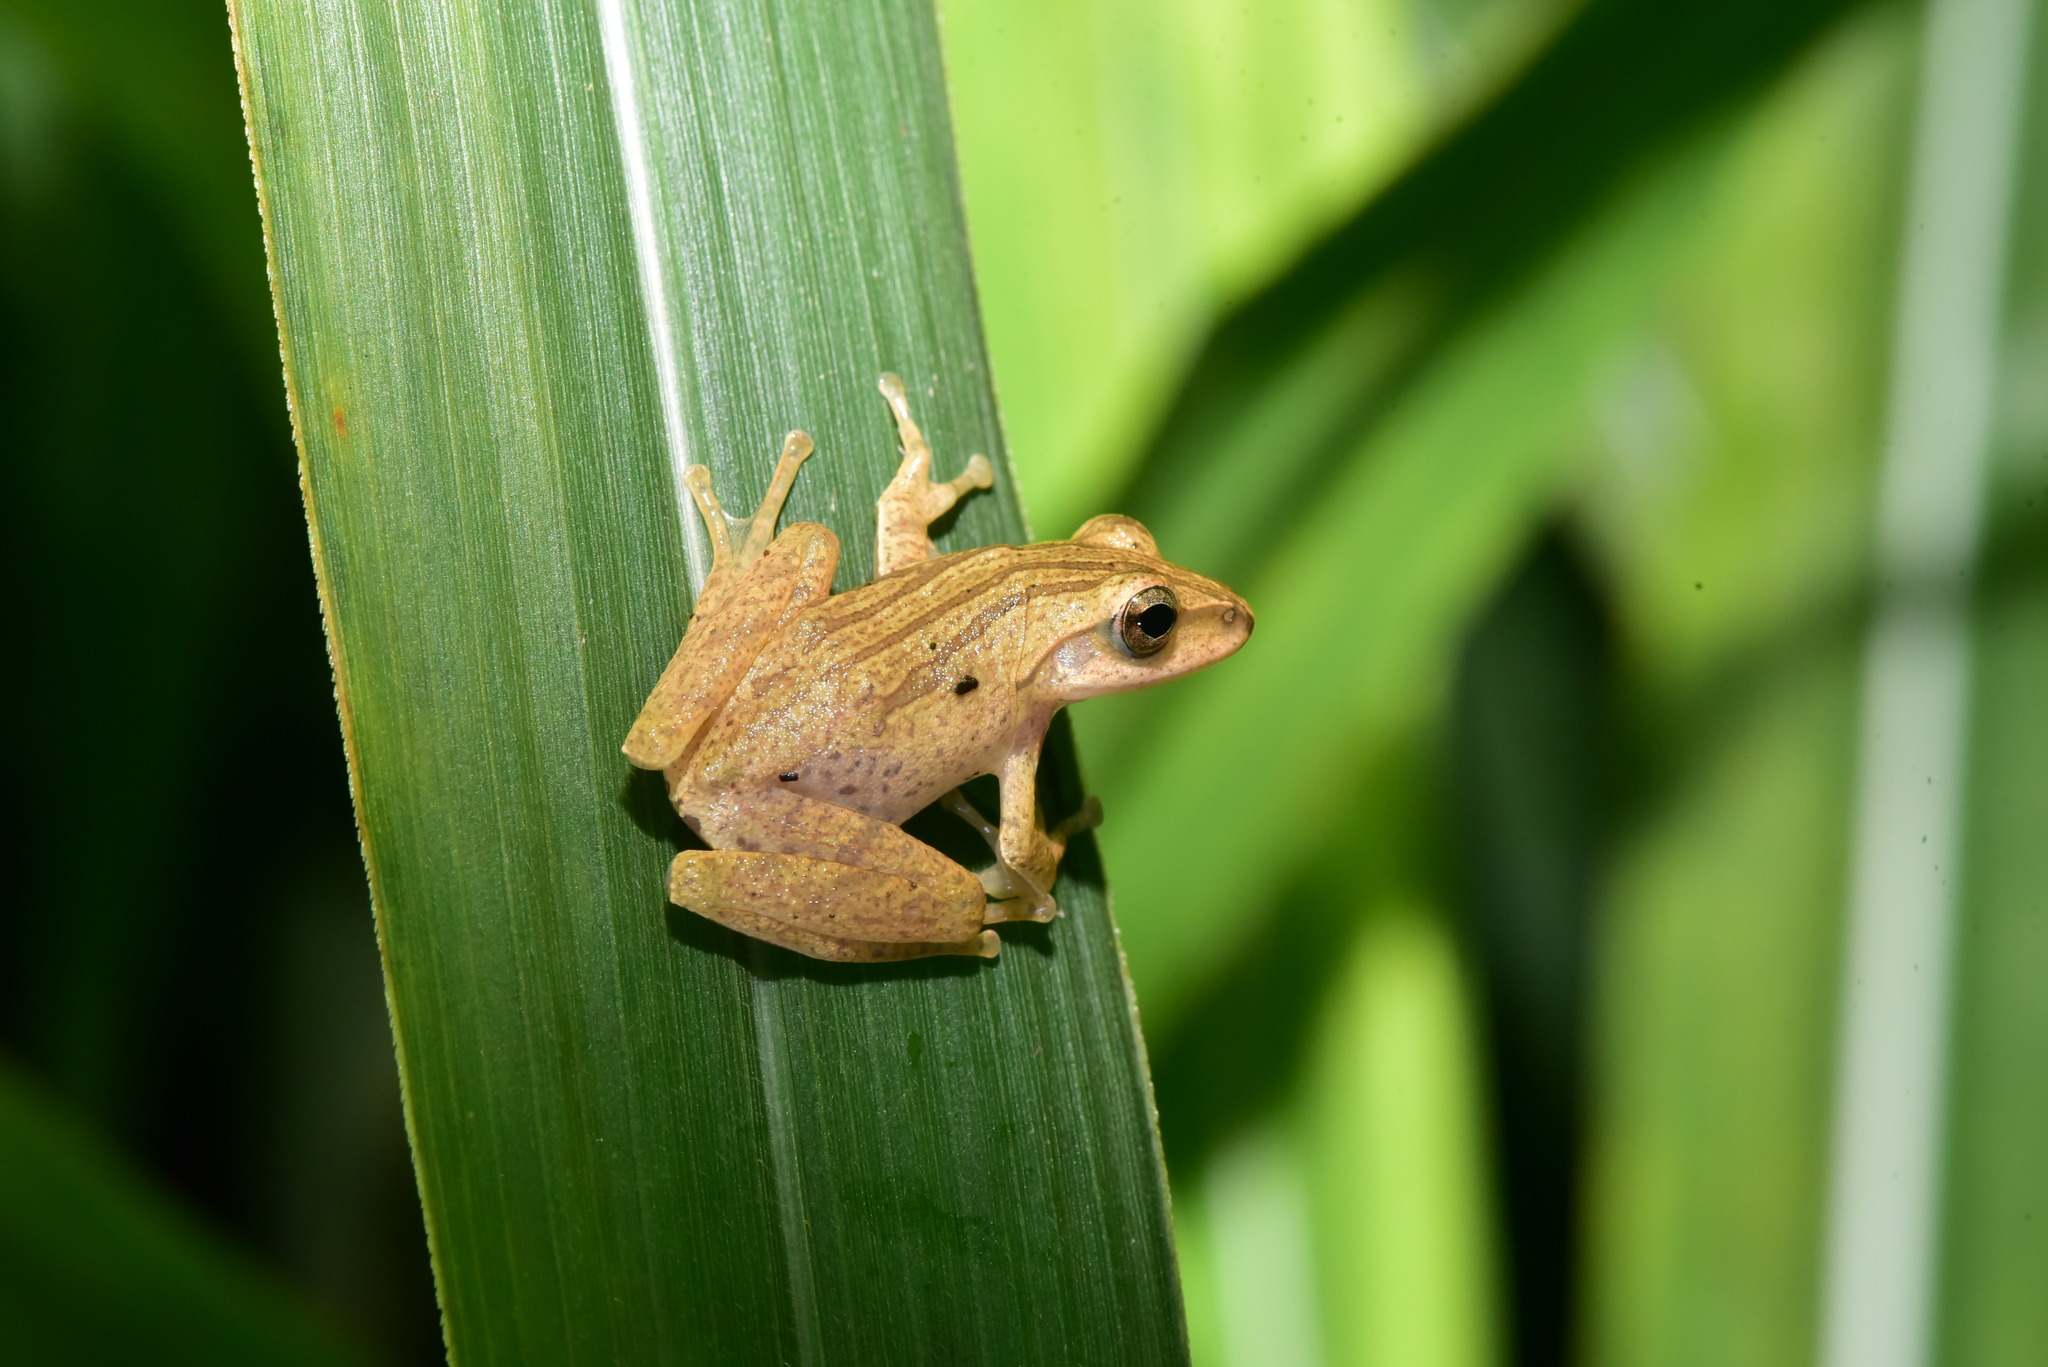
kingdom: Animalia
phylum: Chordata
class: Amphibia
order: Anura
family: Rhacophoridae
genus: Polypedates
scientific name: Polypedates braueri
